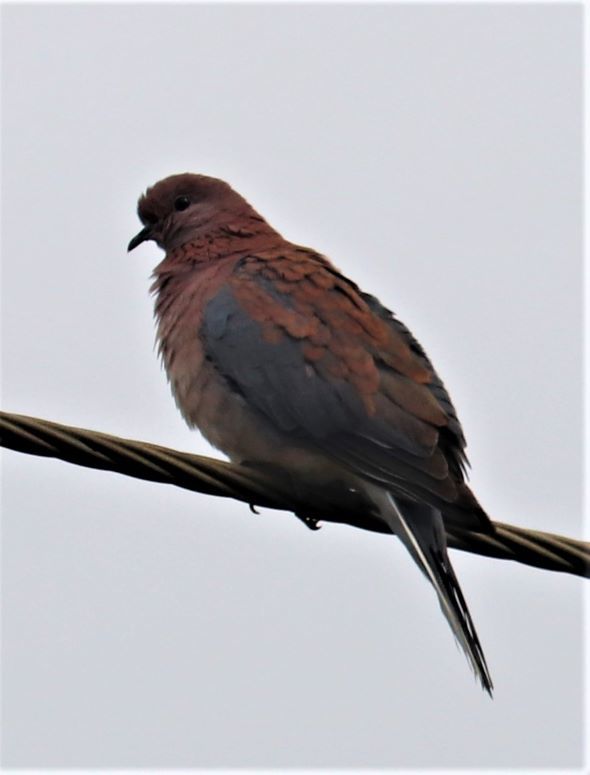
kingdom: Animalia
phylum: Chordata
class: Aves
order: Columbiformes
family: Columbidae
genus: Spilopelia
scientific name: Spilopelia senegalensis
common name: Laughing dove
